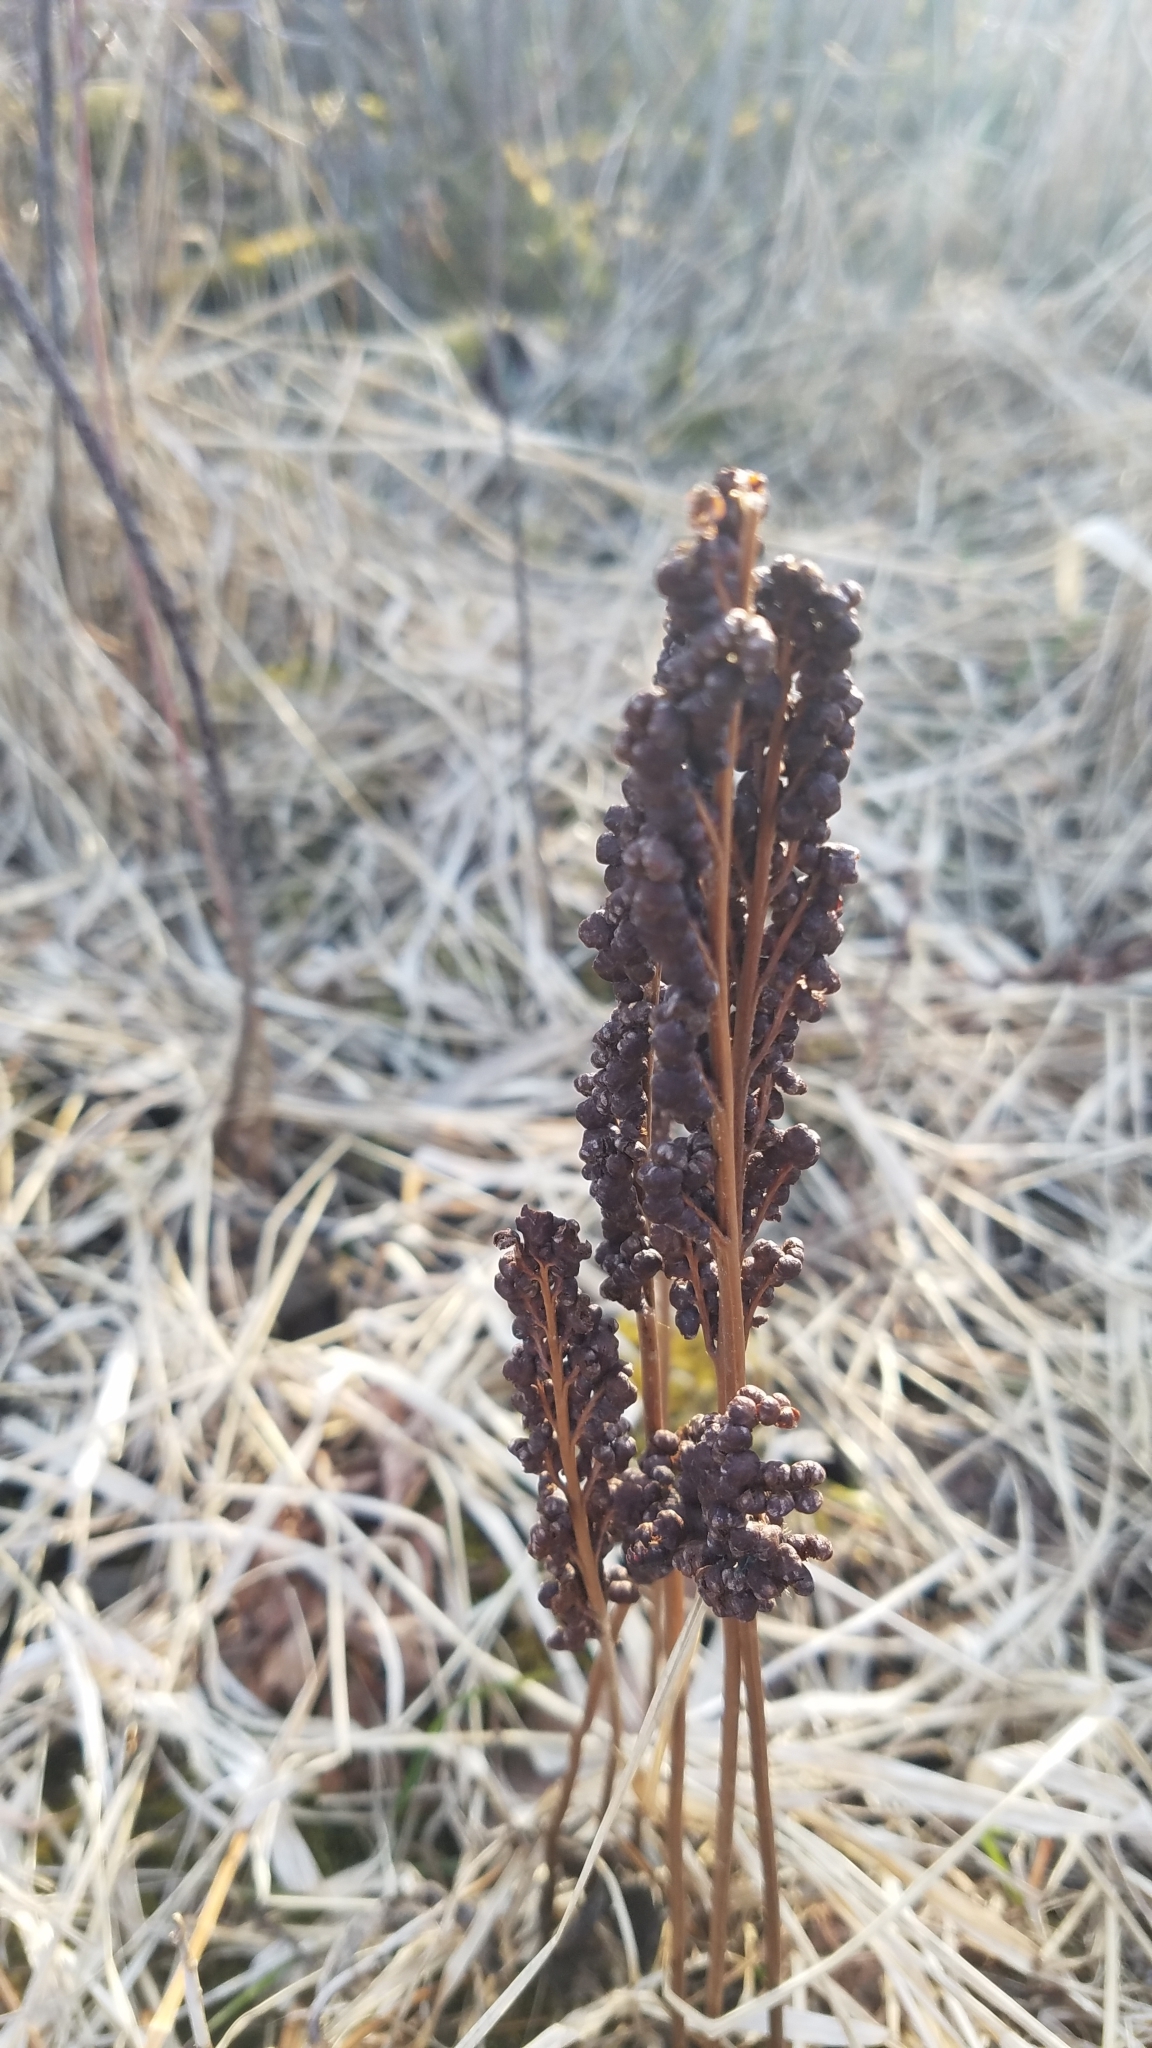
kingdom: Plantae
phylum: Tracheophyta
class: Polypodiopsida
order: Polypodiales
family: Onocleaceae
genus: Onoclea
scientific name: Onoclea sensibilis
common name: Sensitive fern
